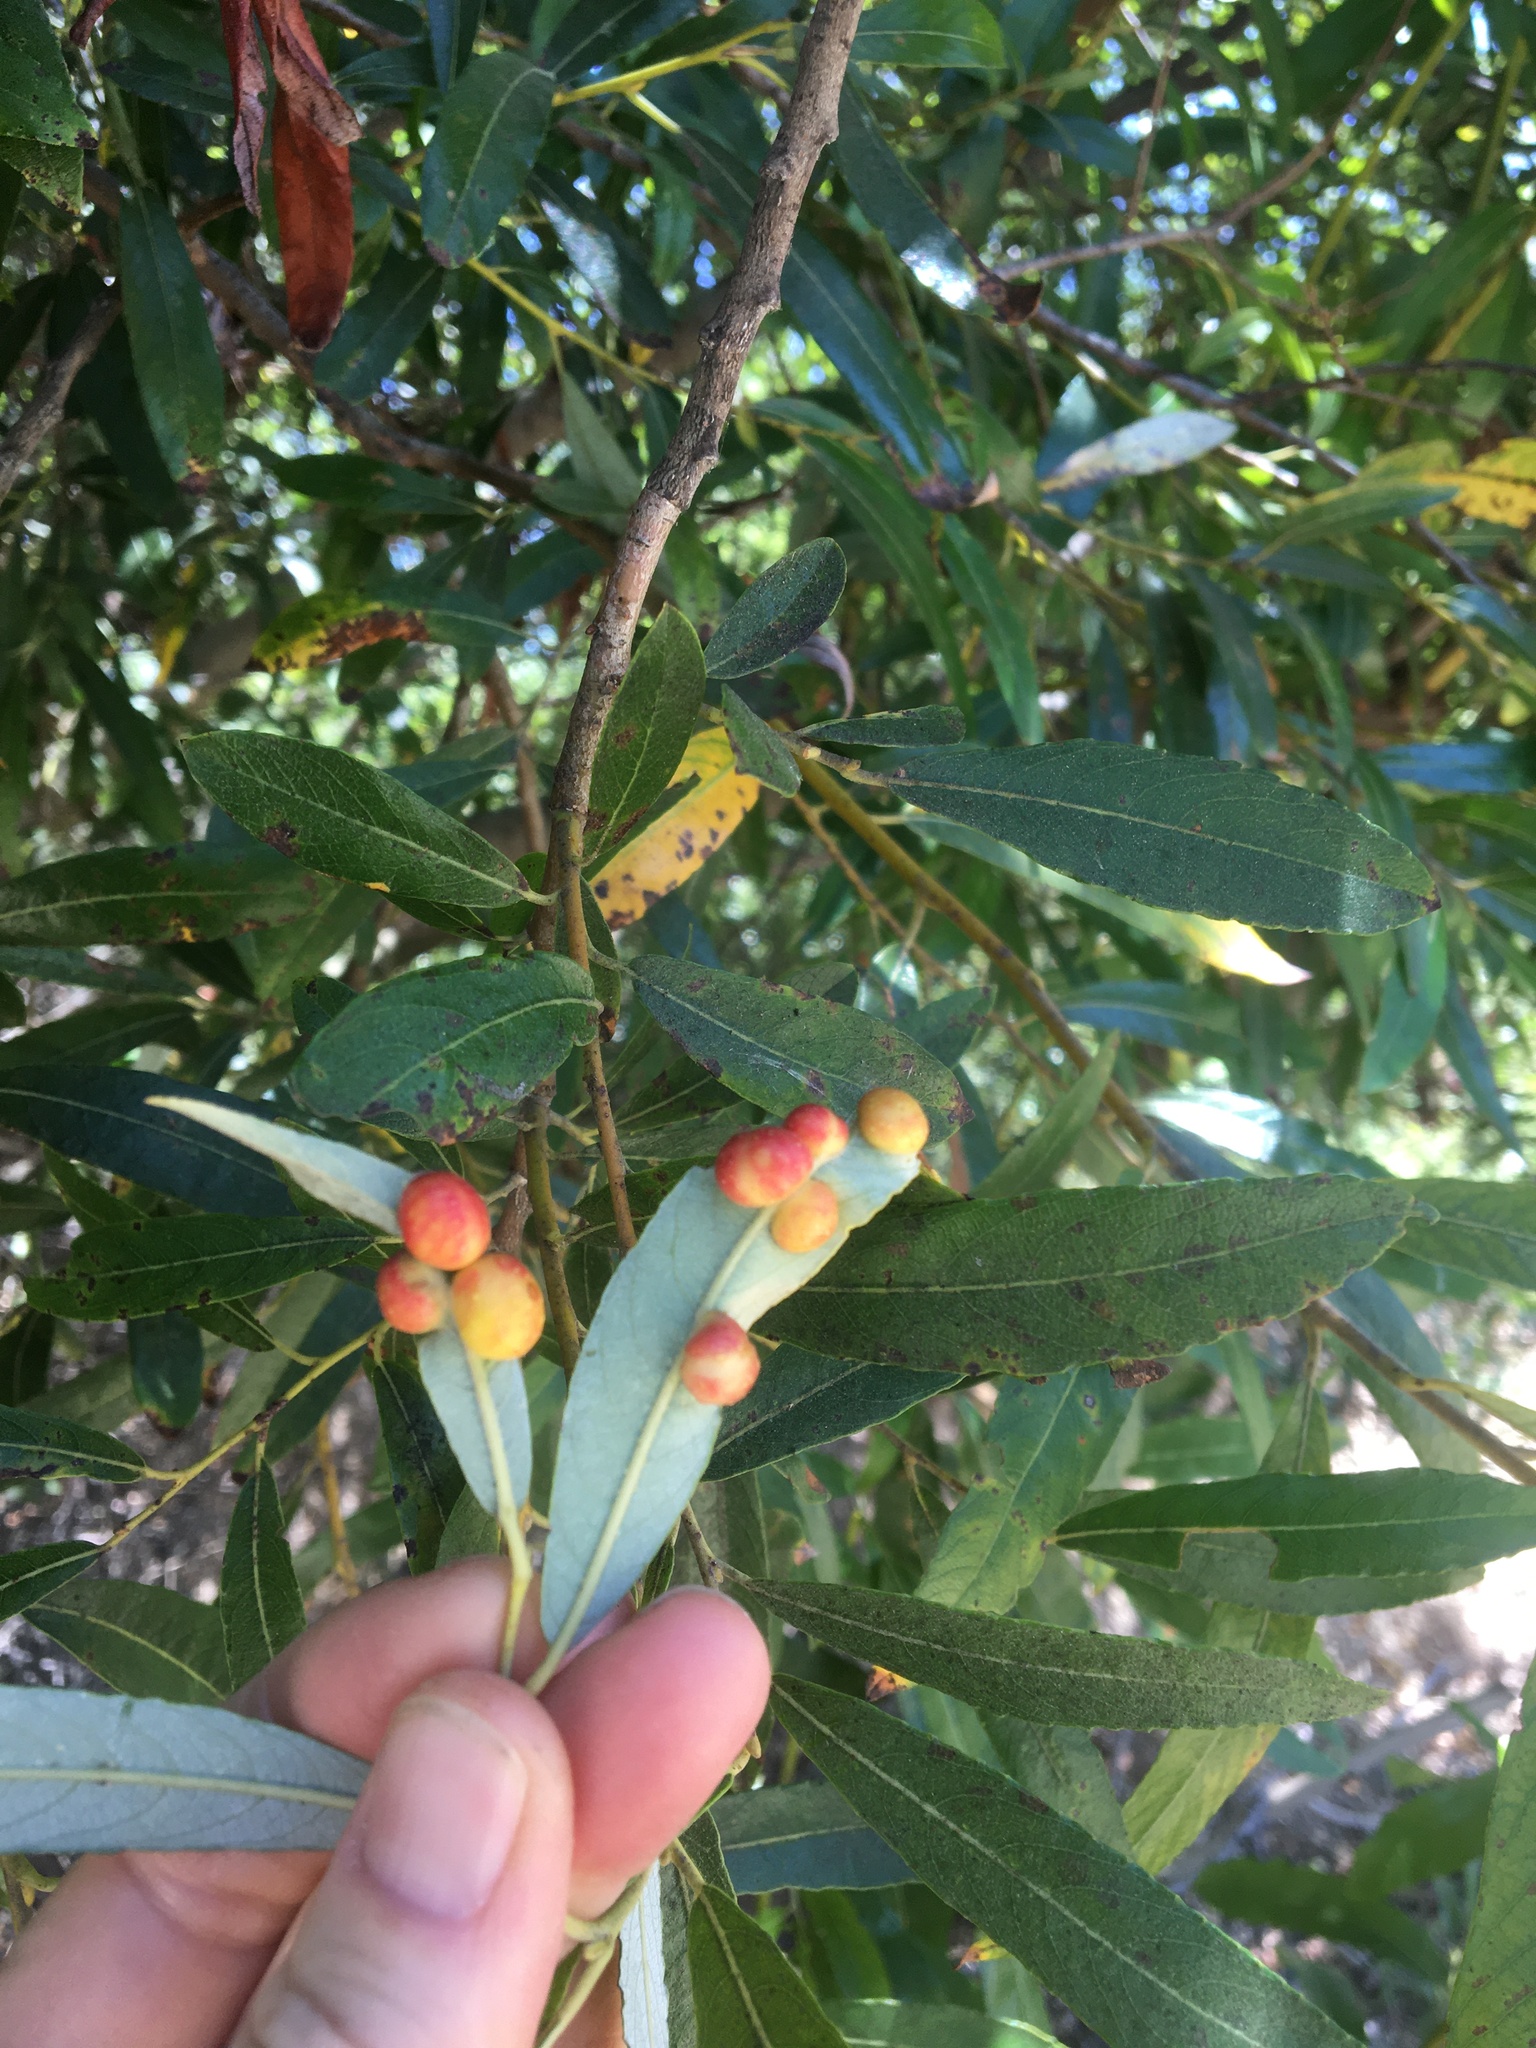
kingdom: Animalia
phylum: Arthropoda
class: Insecta
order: Hymenoptera
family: Tenthredinidae
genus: Euura
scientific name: Euura
